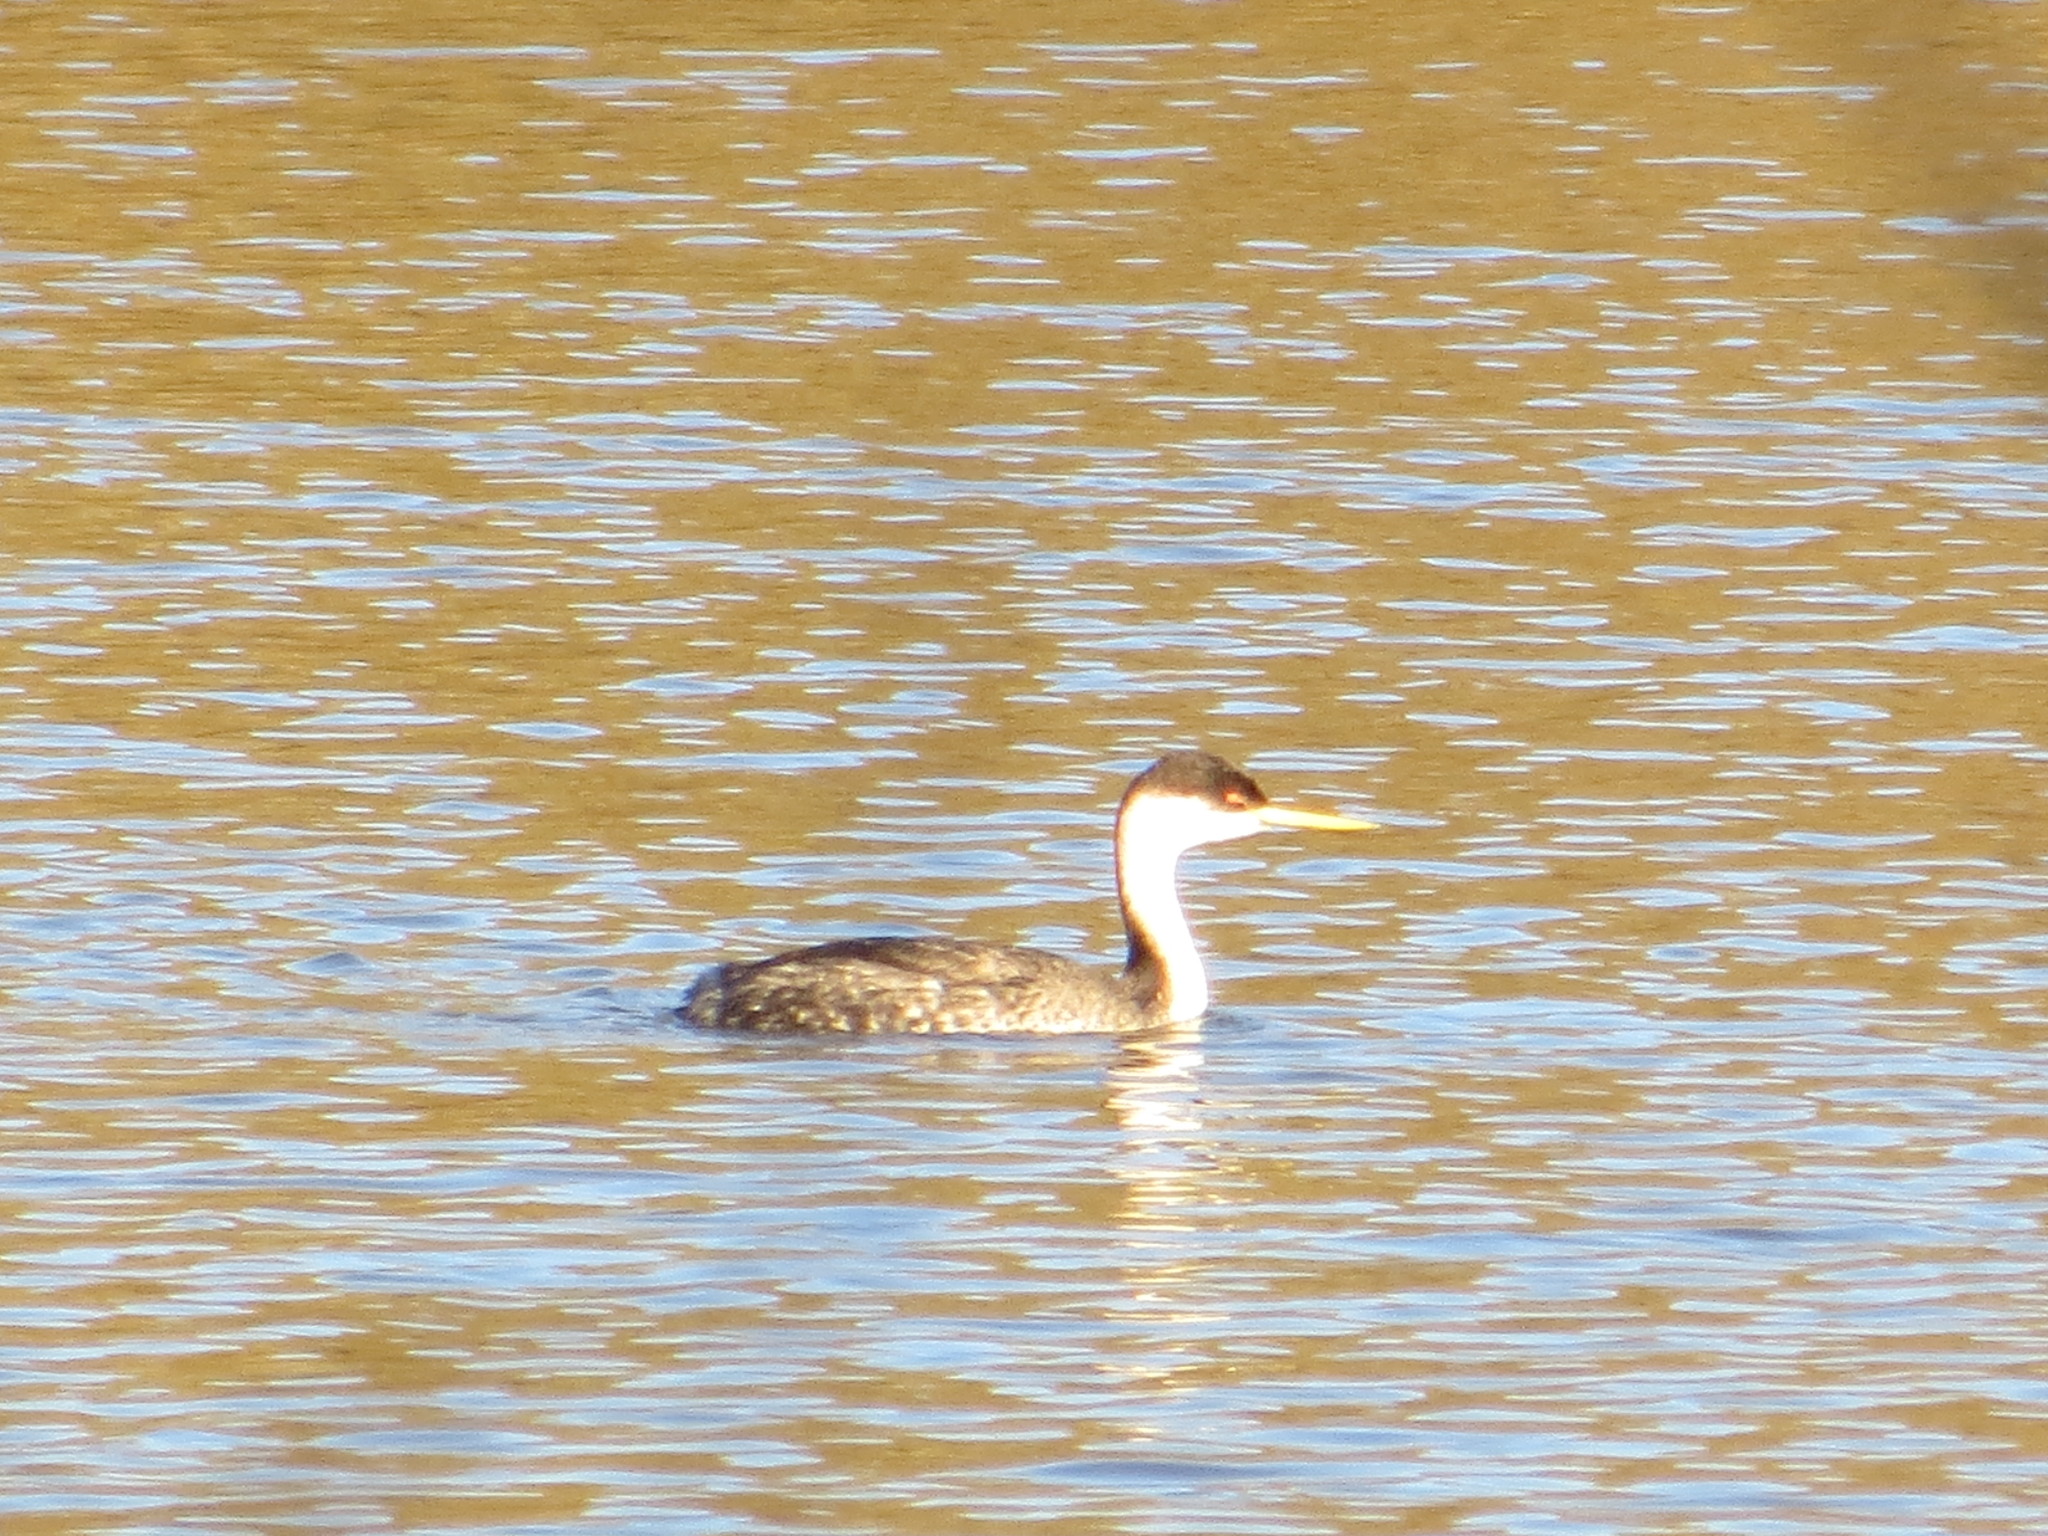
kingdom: Animalia
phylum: Chordata
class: Aves
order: Podicipediformes
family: Podicipedidae
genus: Aechmophorus
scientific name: Aechmophorus occidentalis
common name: Western grebe
